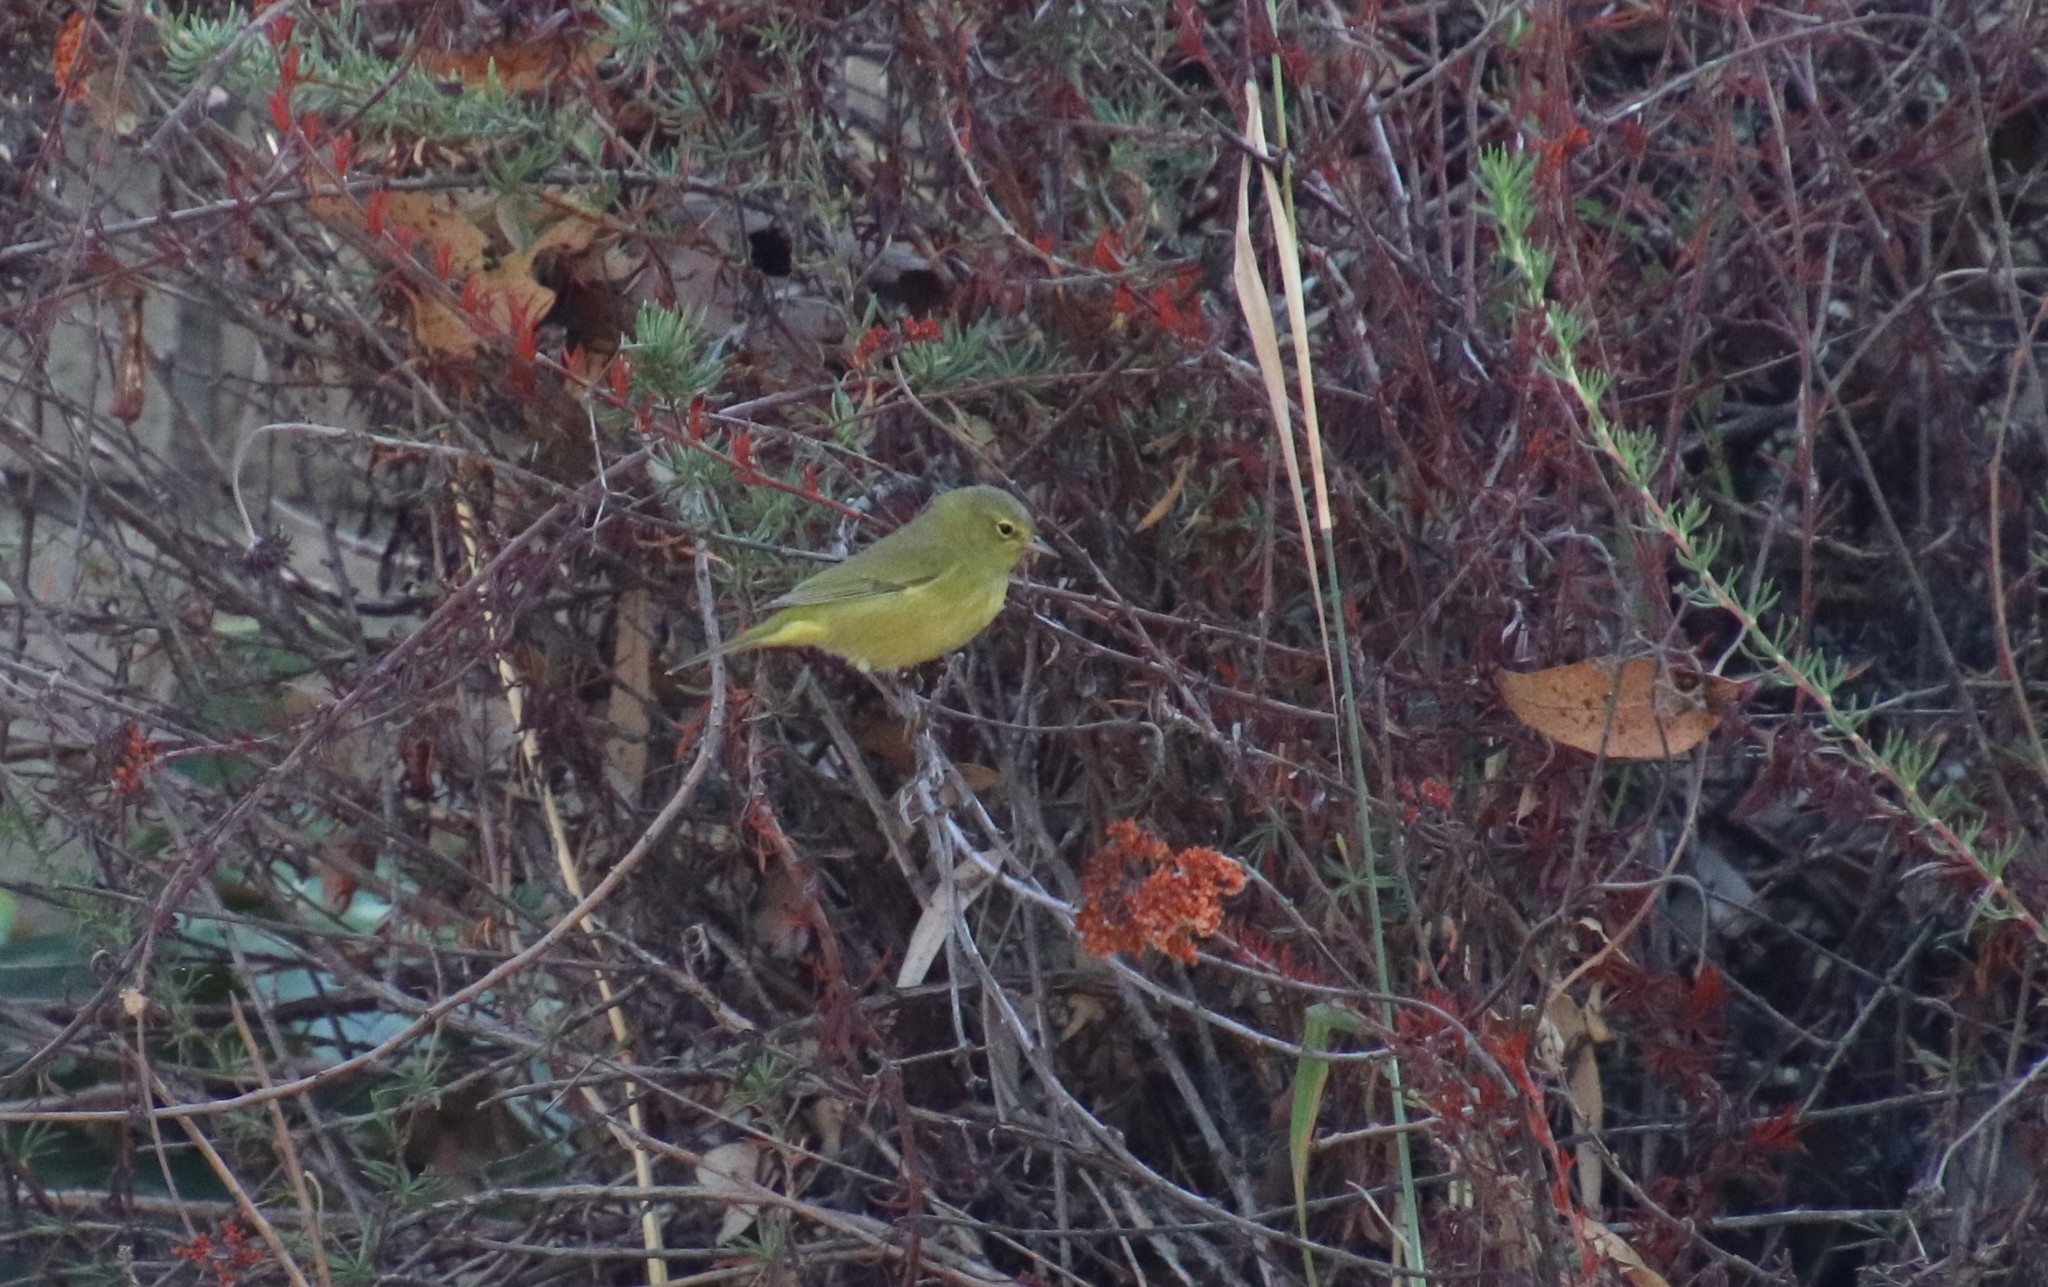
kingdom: Animalia
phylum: Chordata
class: Aves
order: Passeriformes
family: Parulidae
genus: Leiothlypis
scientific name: Leiothlypis celata
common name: Orange-crowned warbler
